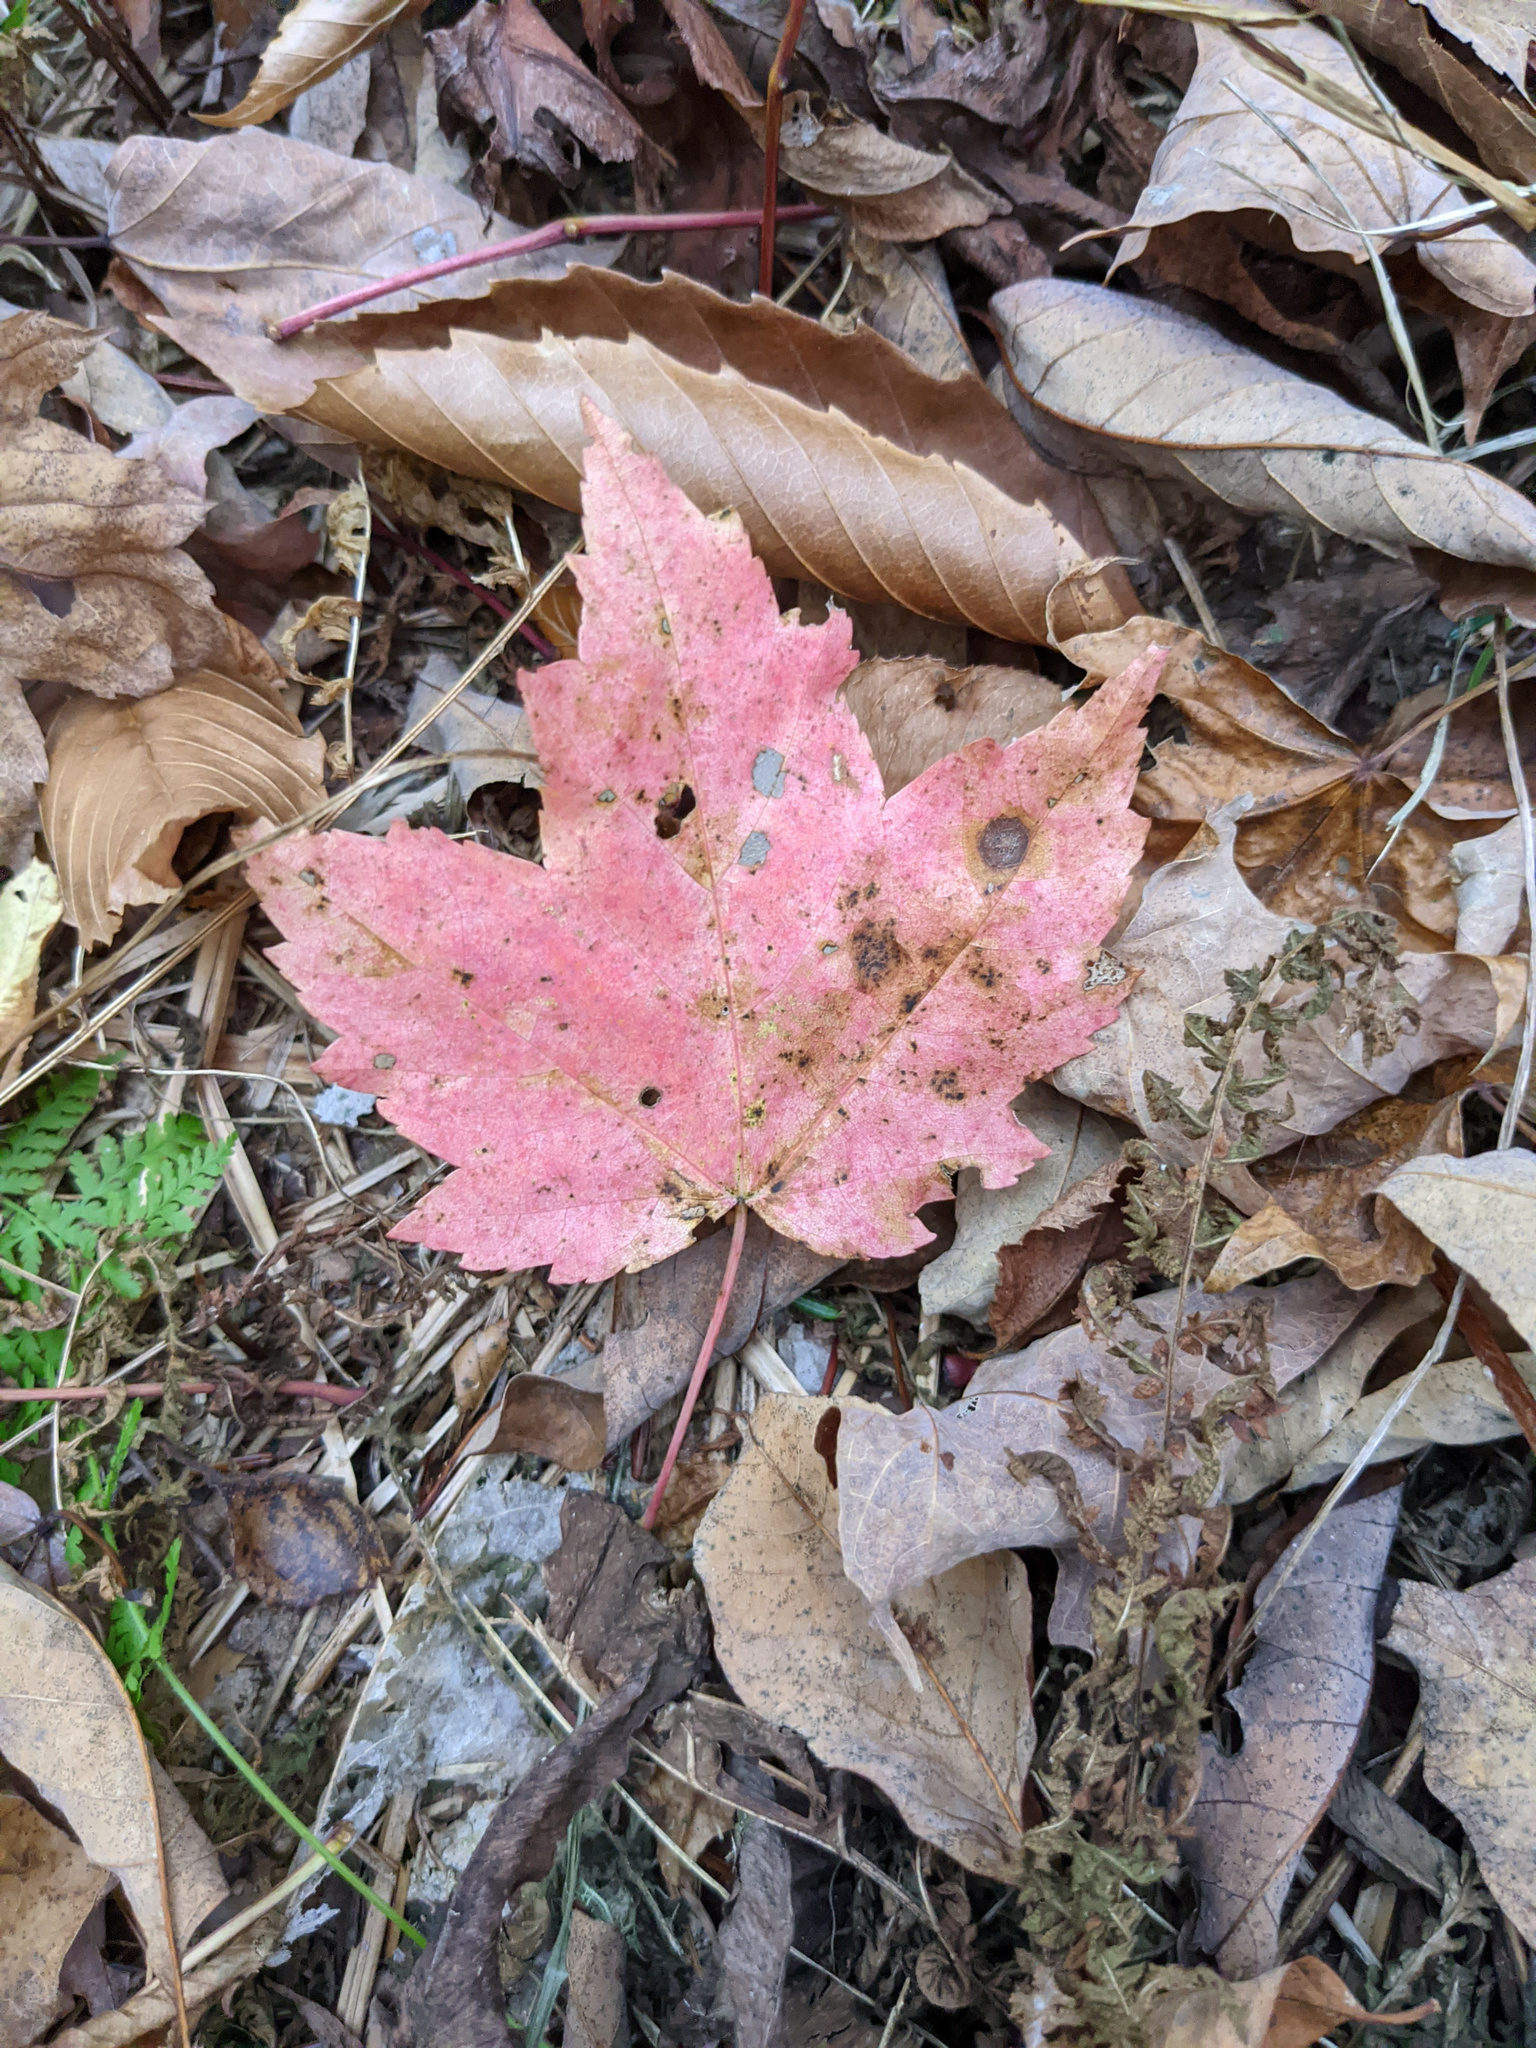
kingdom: Plantae
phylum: Tracheophyta
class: Magnoliopsida
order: Sapindales
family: Sapindaceae
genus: Acer
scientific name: Acer rubrum
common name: Red maple
